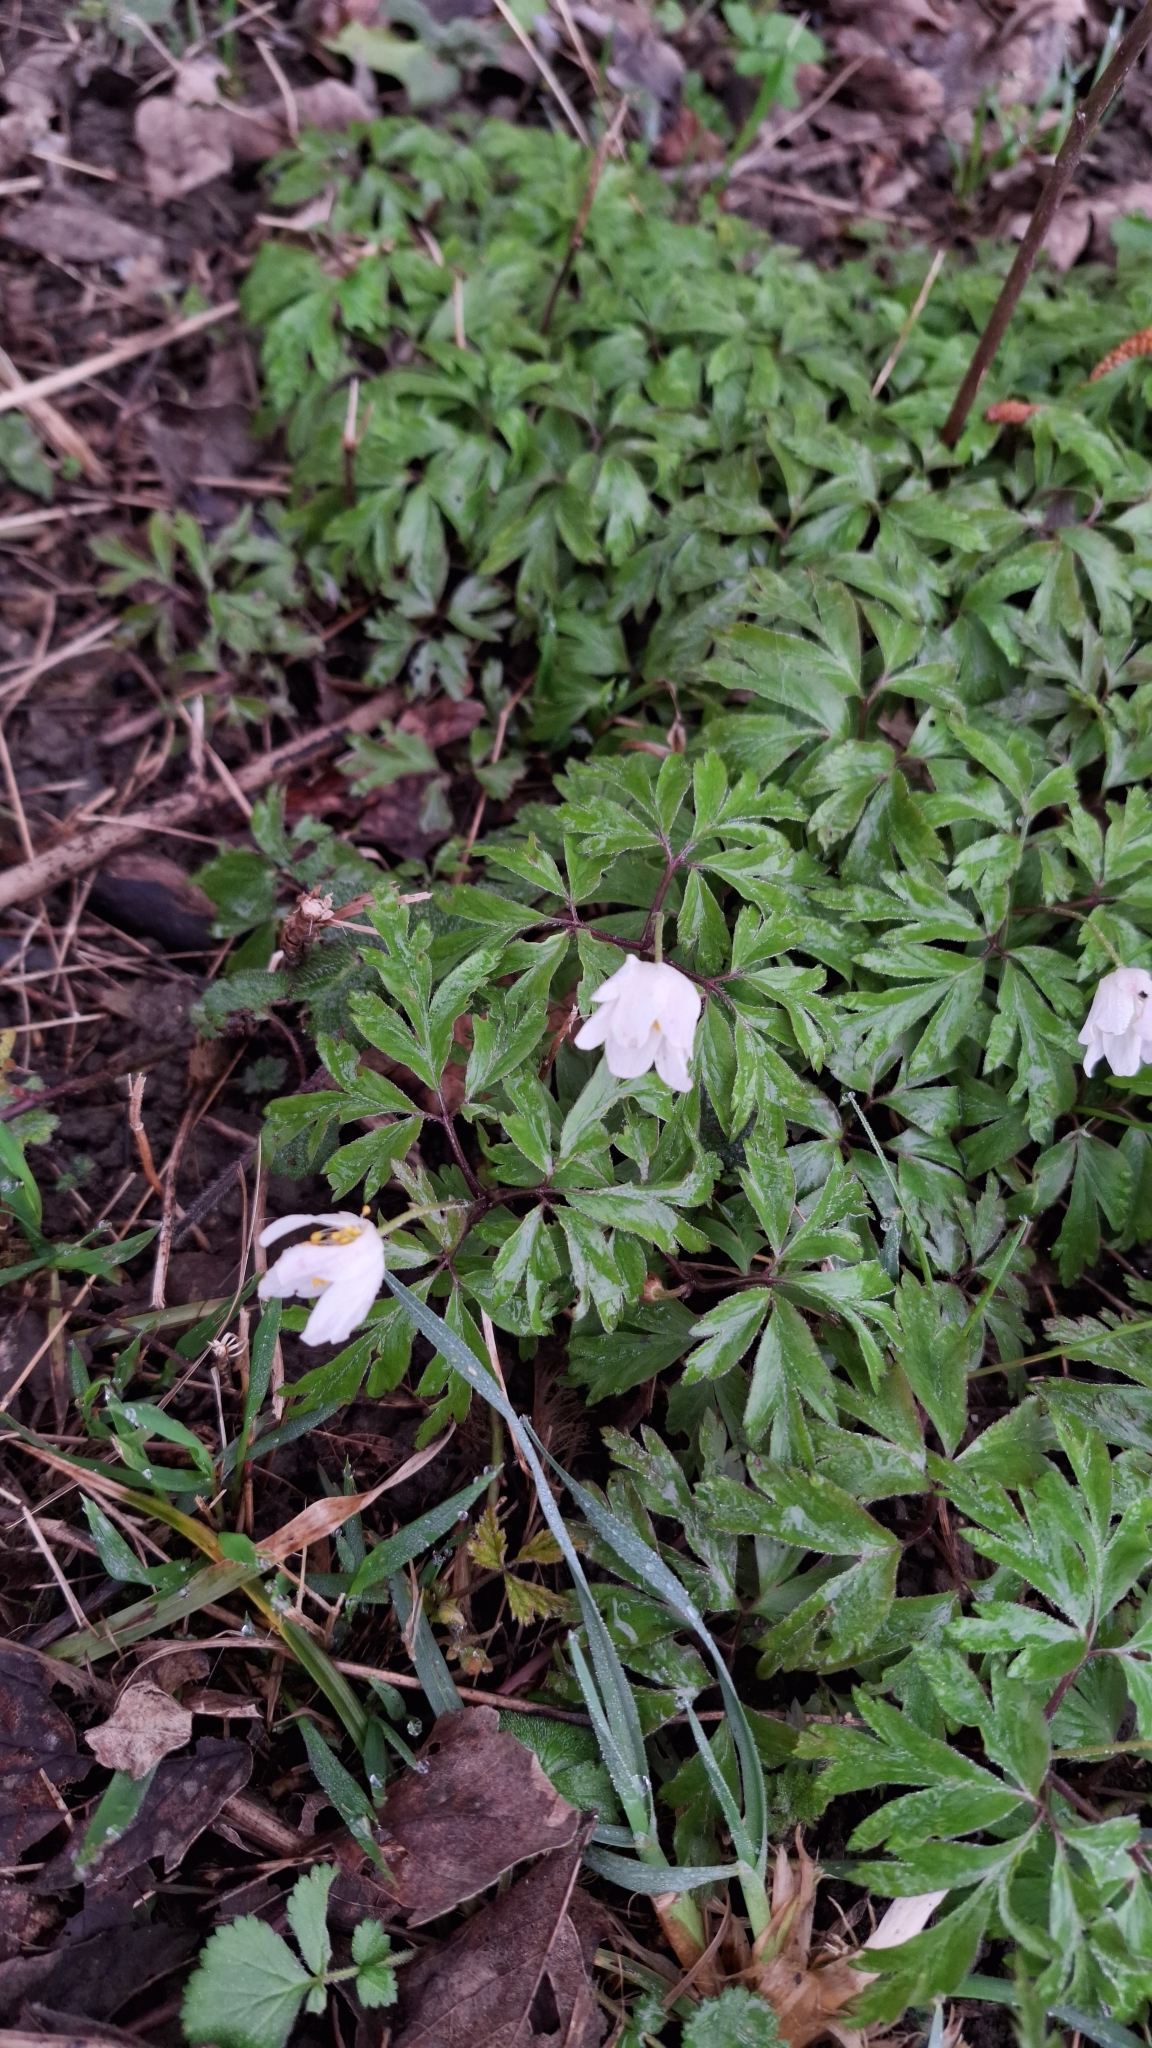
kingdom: Plantae
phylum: Tracheophyta
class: Magnoliopsida
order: Ranunculales
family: Ranunculaceae
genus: Anemone
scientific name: Anemone nemorosa
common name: Wood anemone
